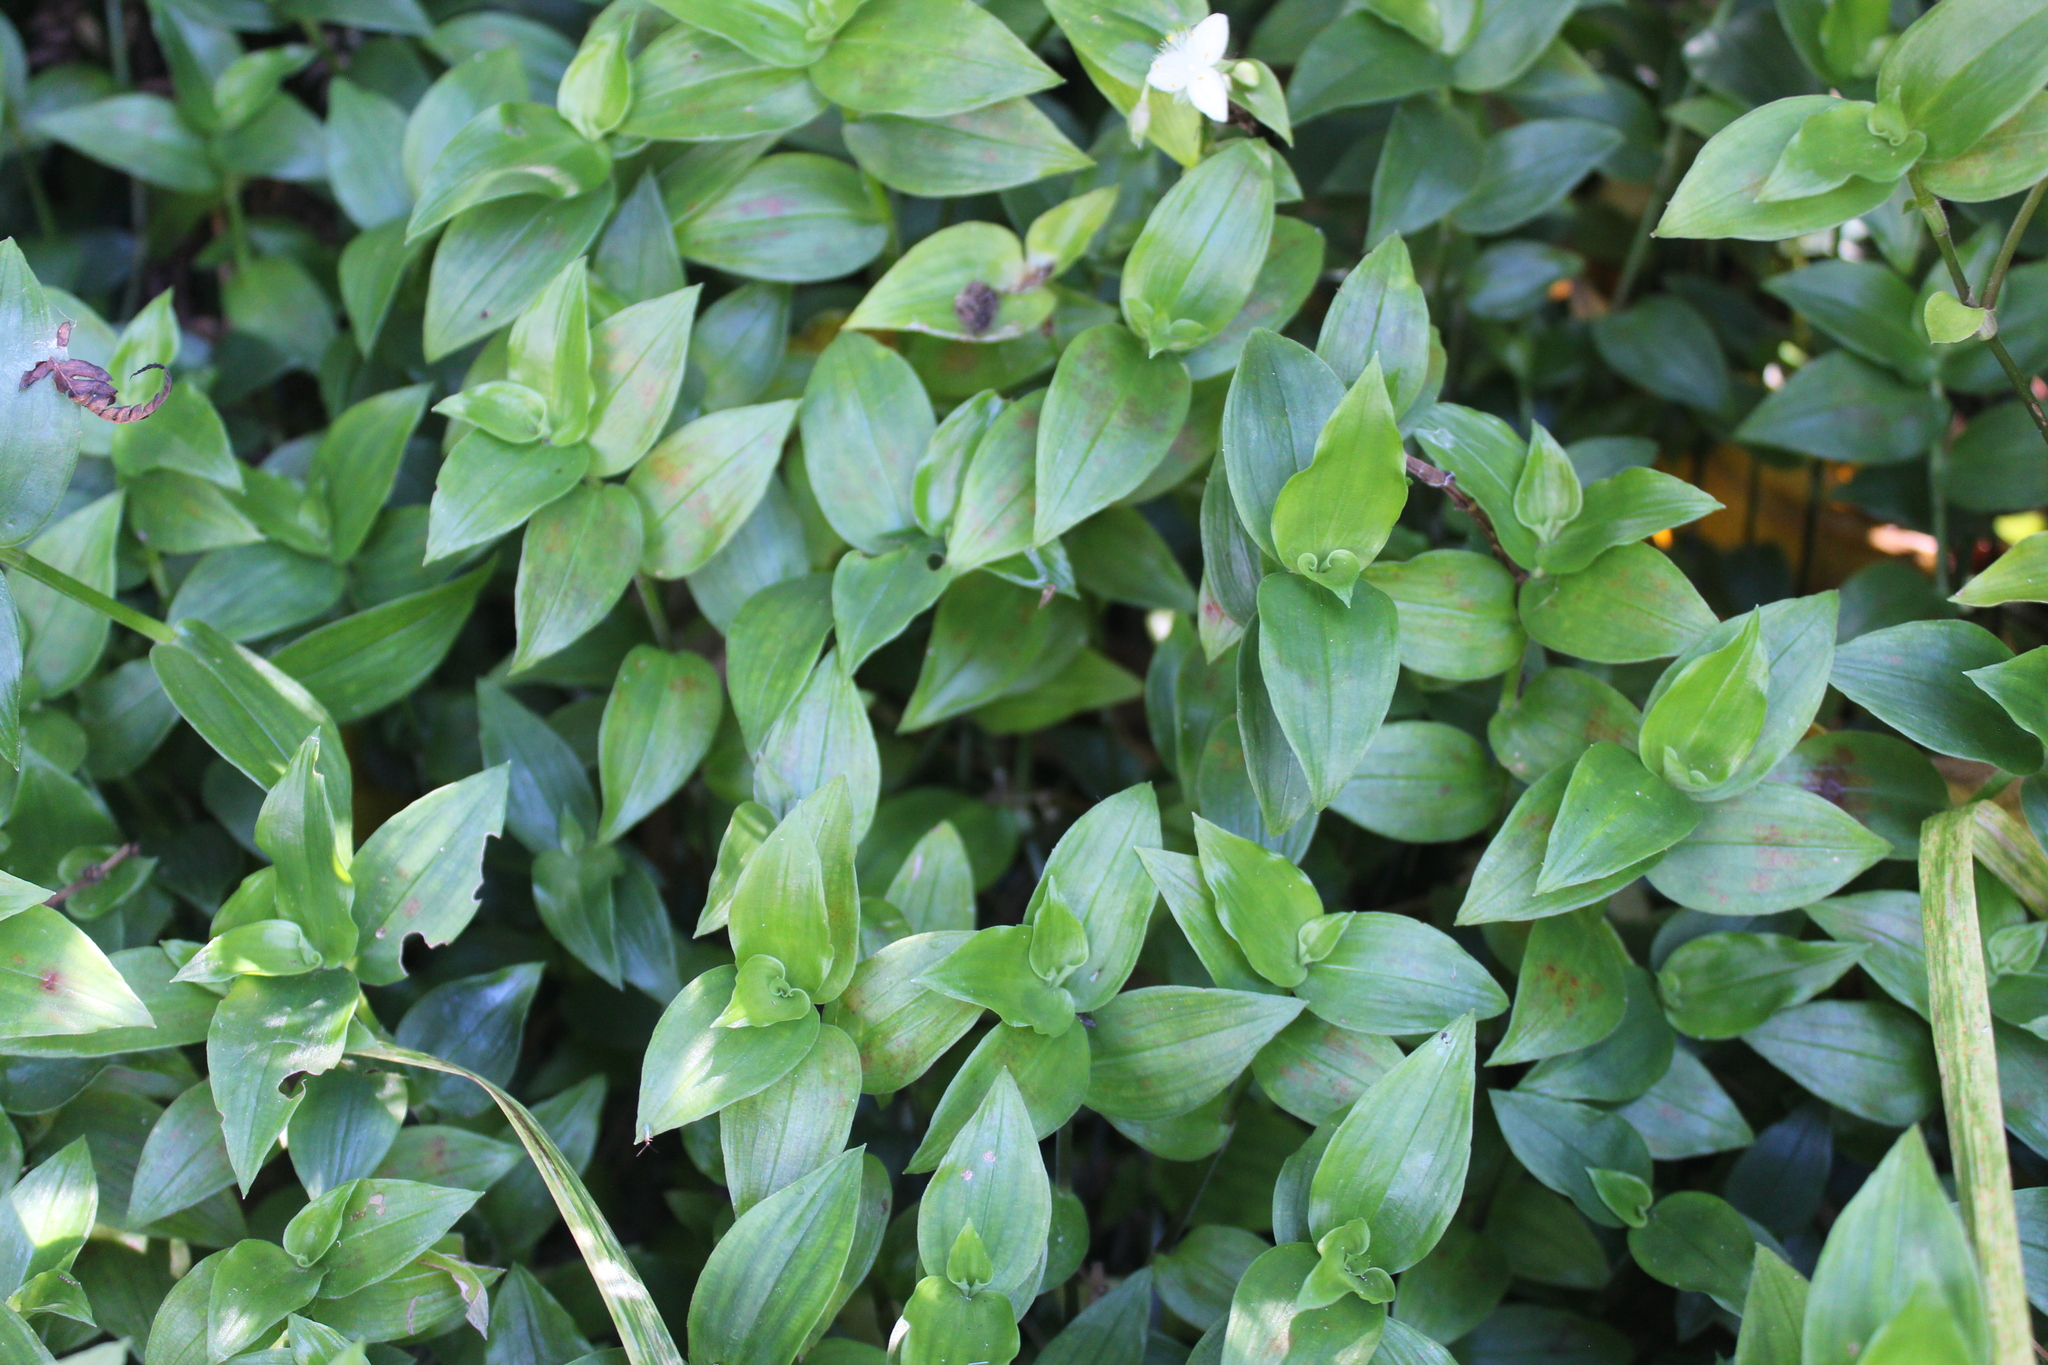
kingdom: Plantae
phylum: Tracheophyta
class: Liliopsida
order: Commelinales
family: Commelinaceae
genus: Tradescantia
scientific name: Tradescantia fluminensis
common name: Wandering-jew
